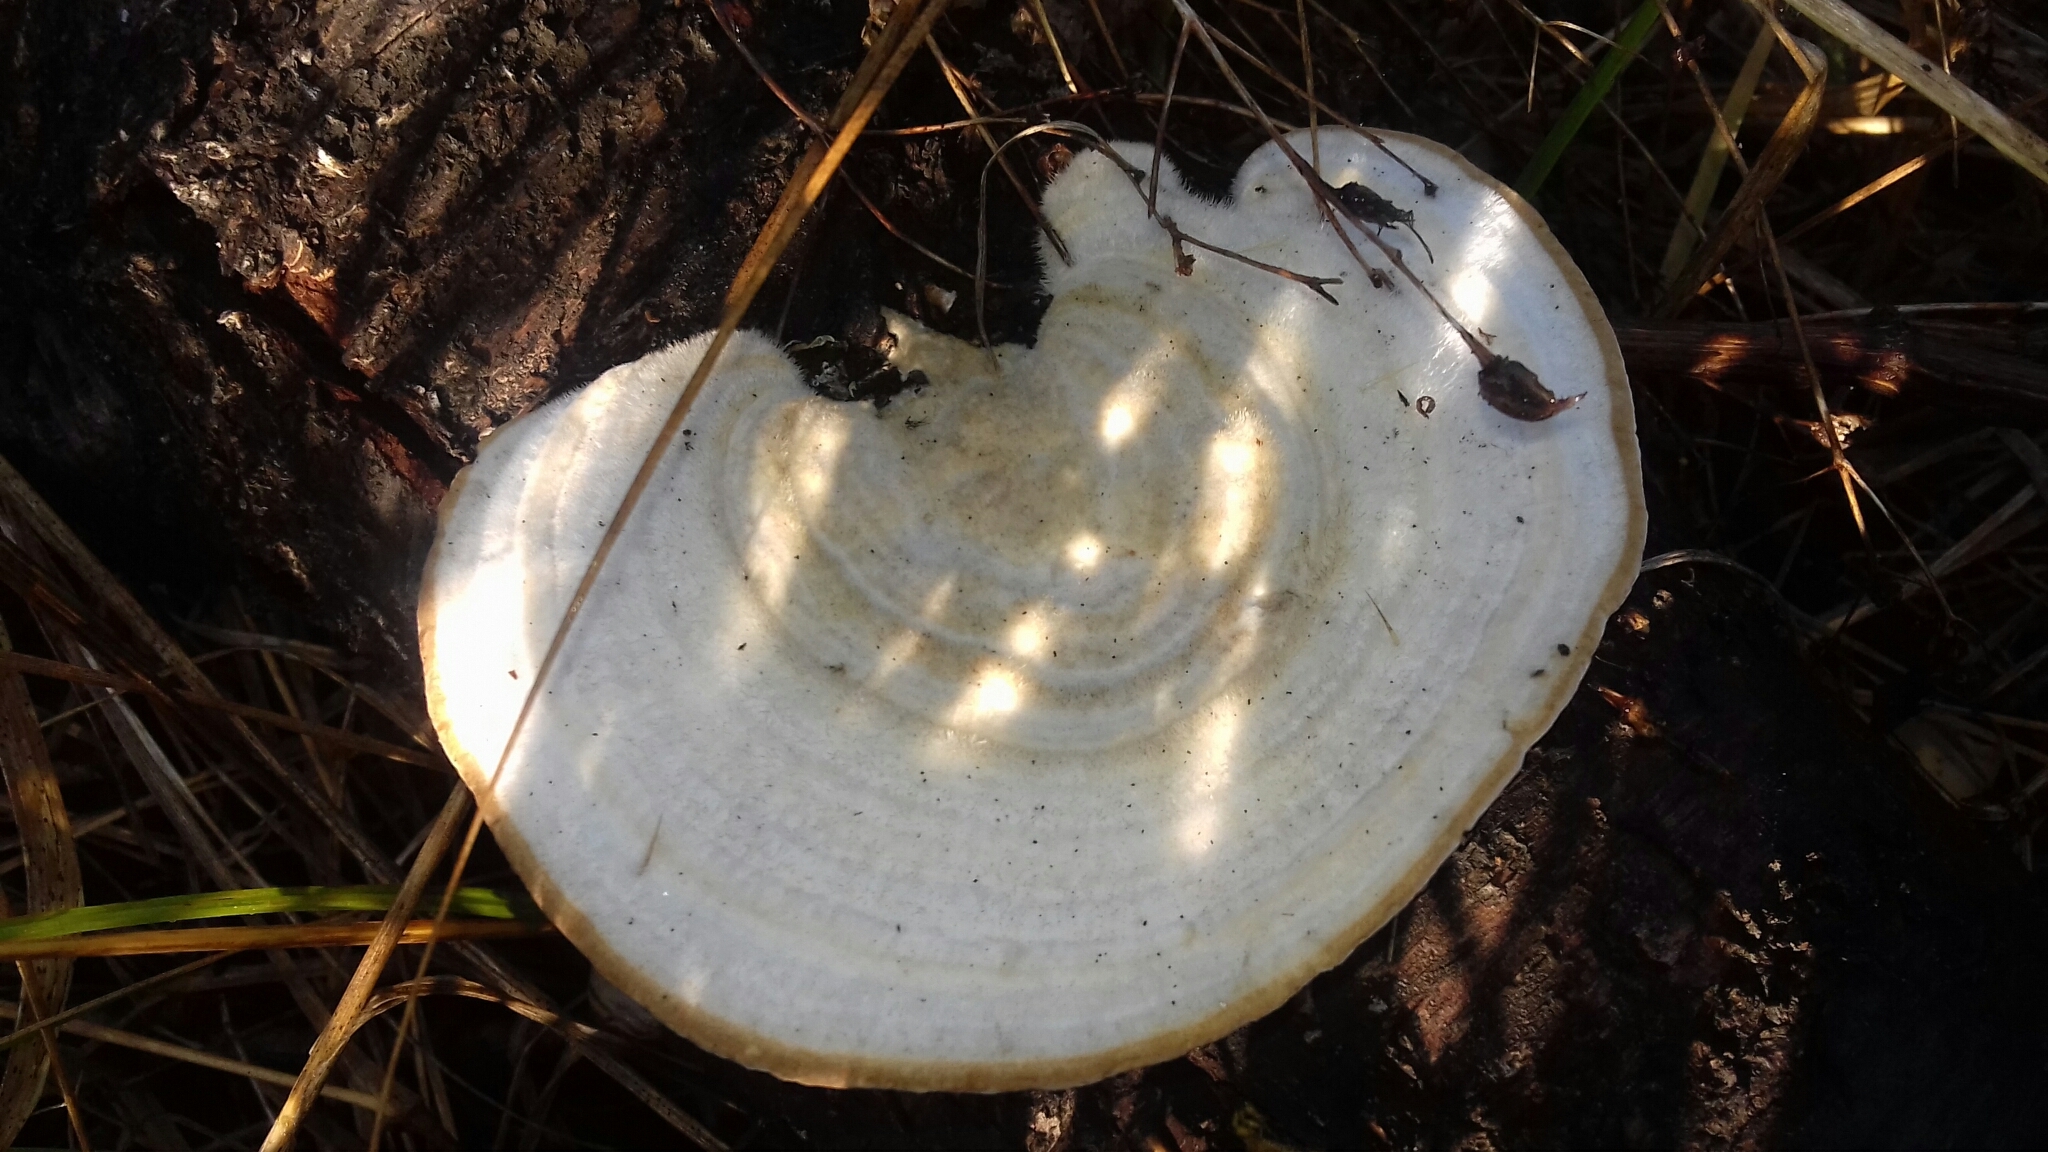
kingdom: Fungi
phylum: Basidiomycota
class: Agaricomycetes
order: Polyporales
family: Polyporaceae
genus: Trametes
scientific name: Trametes hirsuta
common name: Hairy bracket
